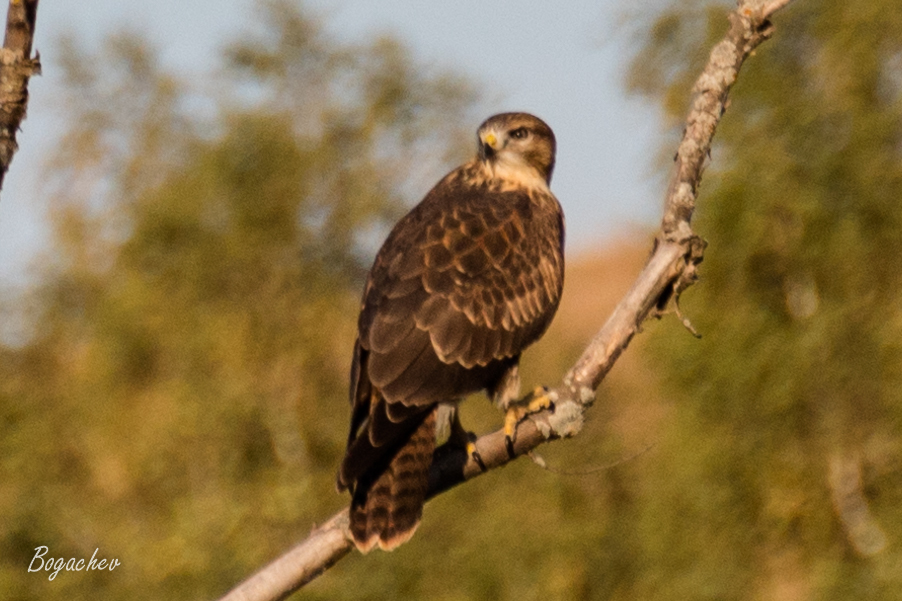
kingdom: Animalia
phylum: Chordata
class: Aves
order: Accipitriformes
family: Accipitridae
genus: Buteo
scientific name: Buteo buteo
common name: Common buzzard
